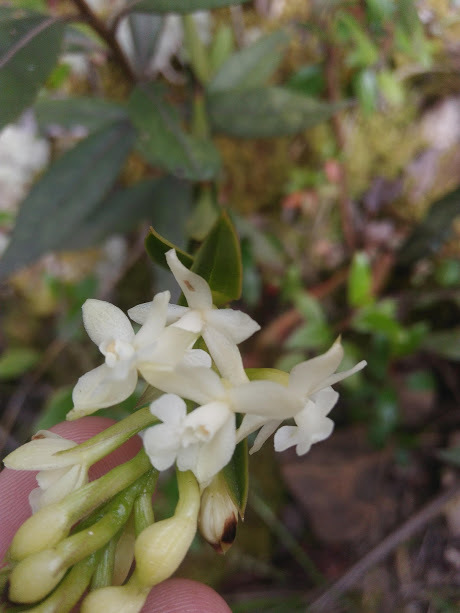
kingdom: Plantae
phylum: Tracheophyta
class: Liliopsida
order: Asparagales
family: Orchidaceae
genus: Epidendrum
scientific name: Epidendrum chioneum
